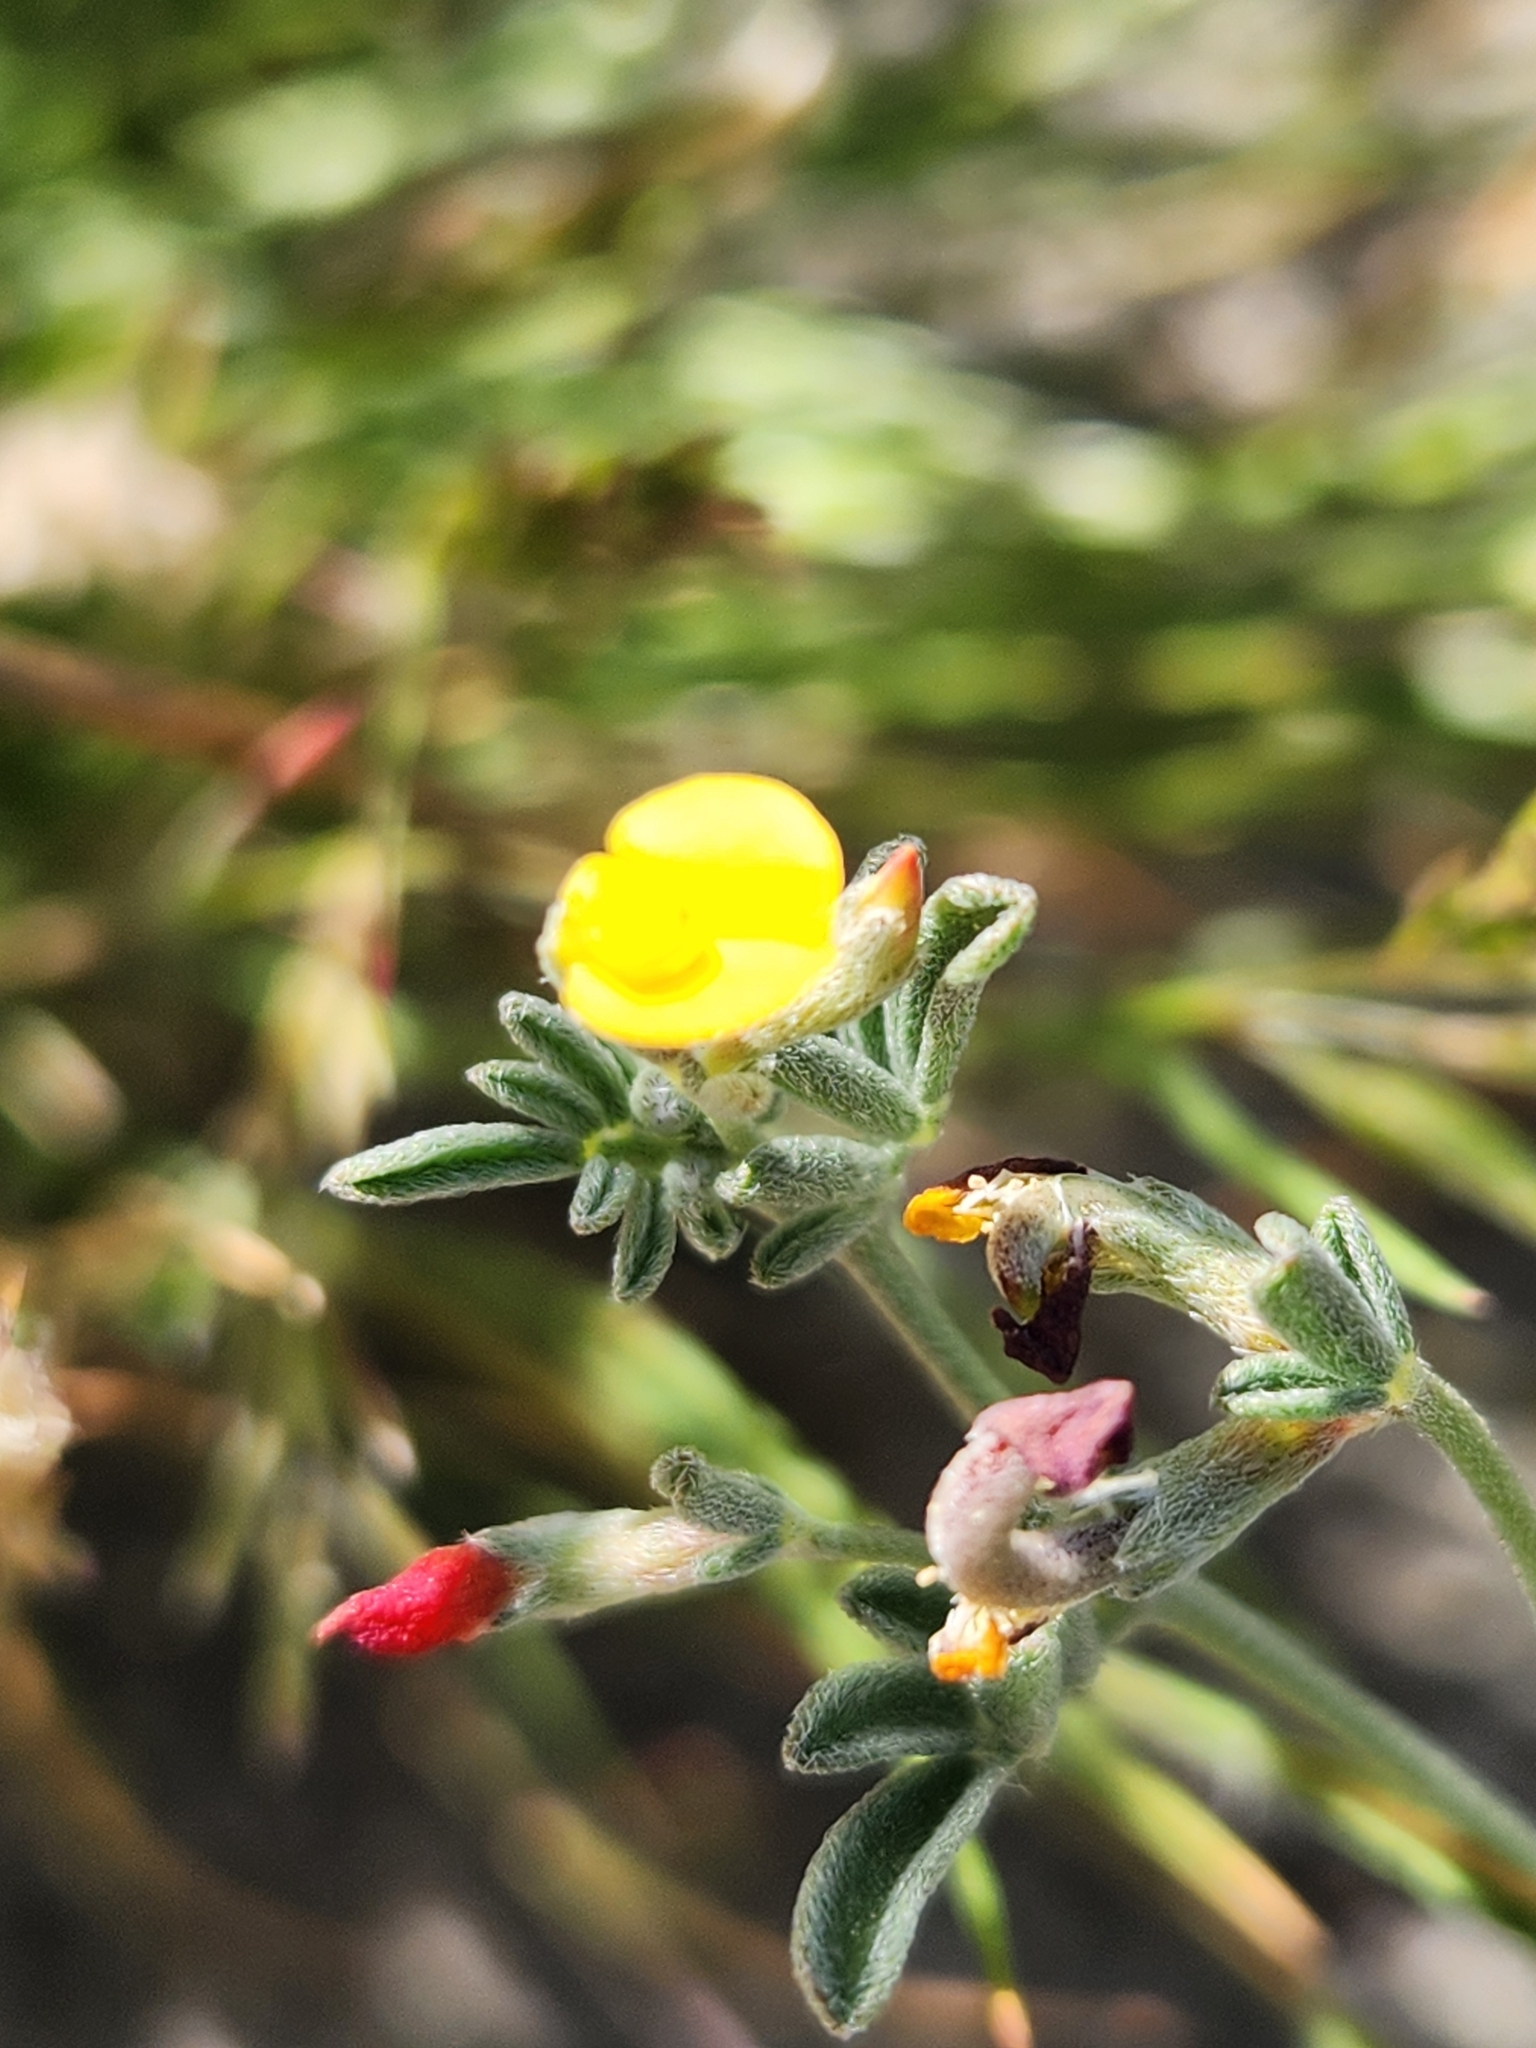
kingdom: Plantae
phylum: Tracheophyta
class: Magnoliopsida
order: Fabales
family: Fabaceae
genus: Acmispon
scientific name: Acmispon strigosus
